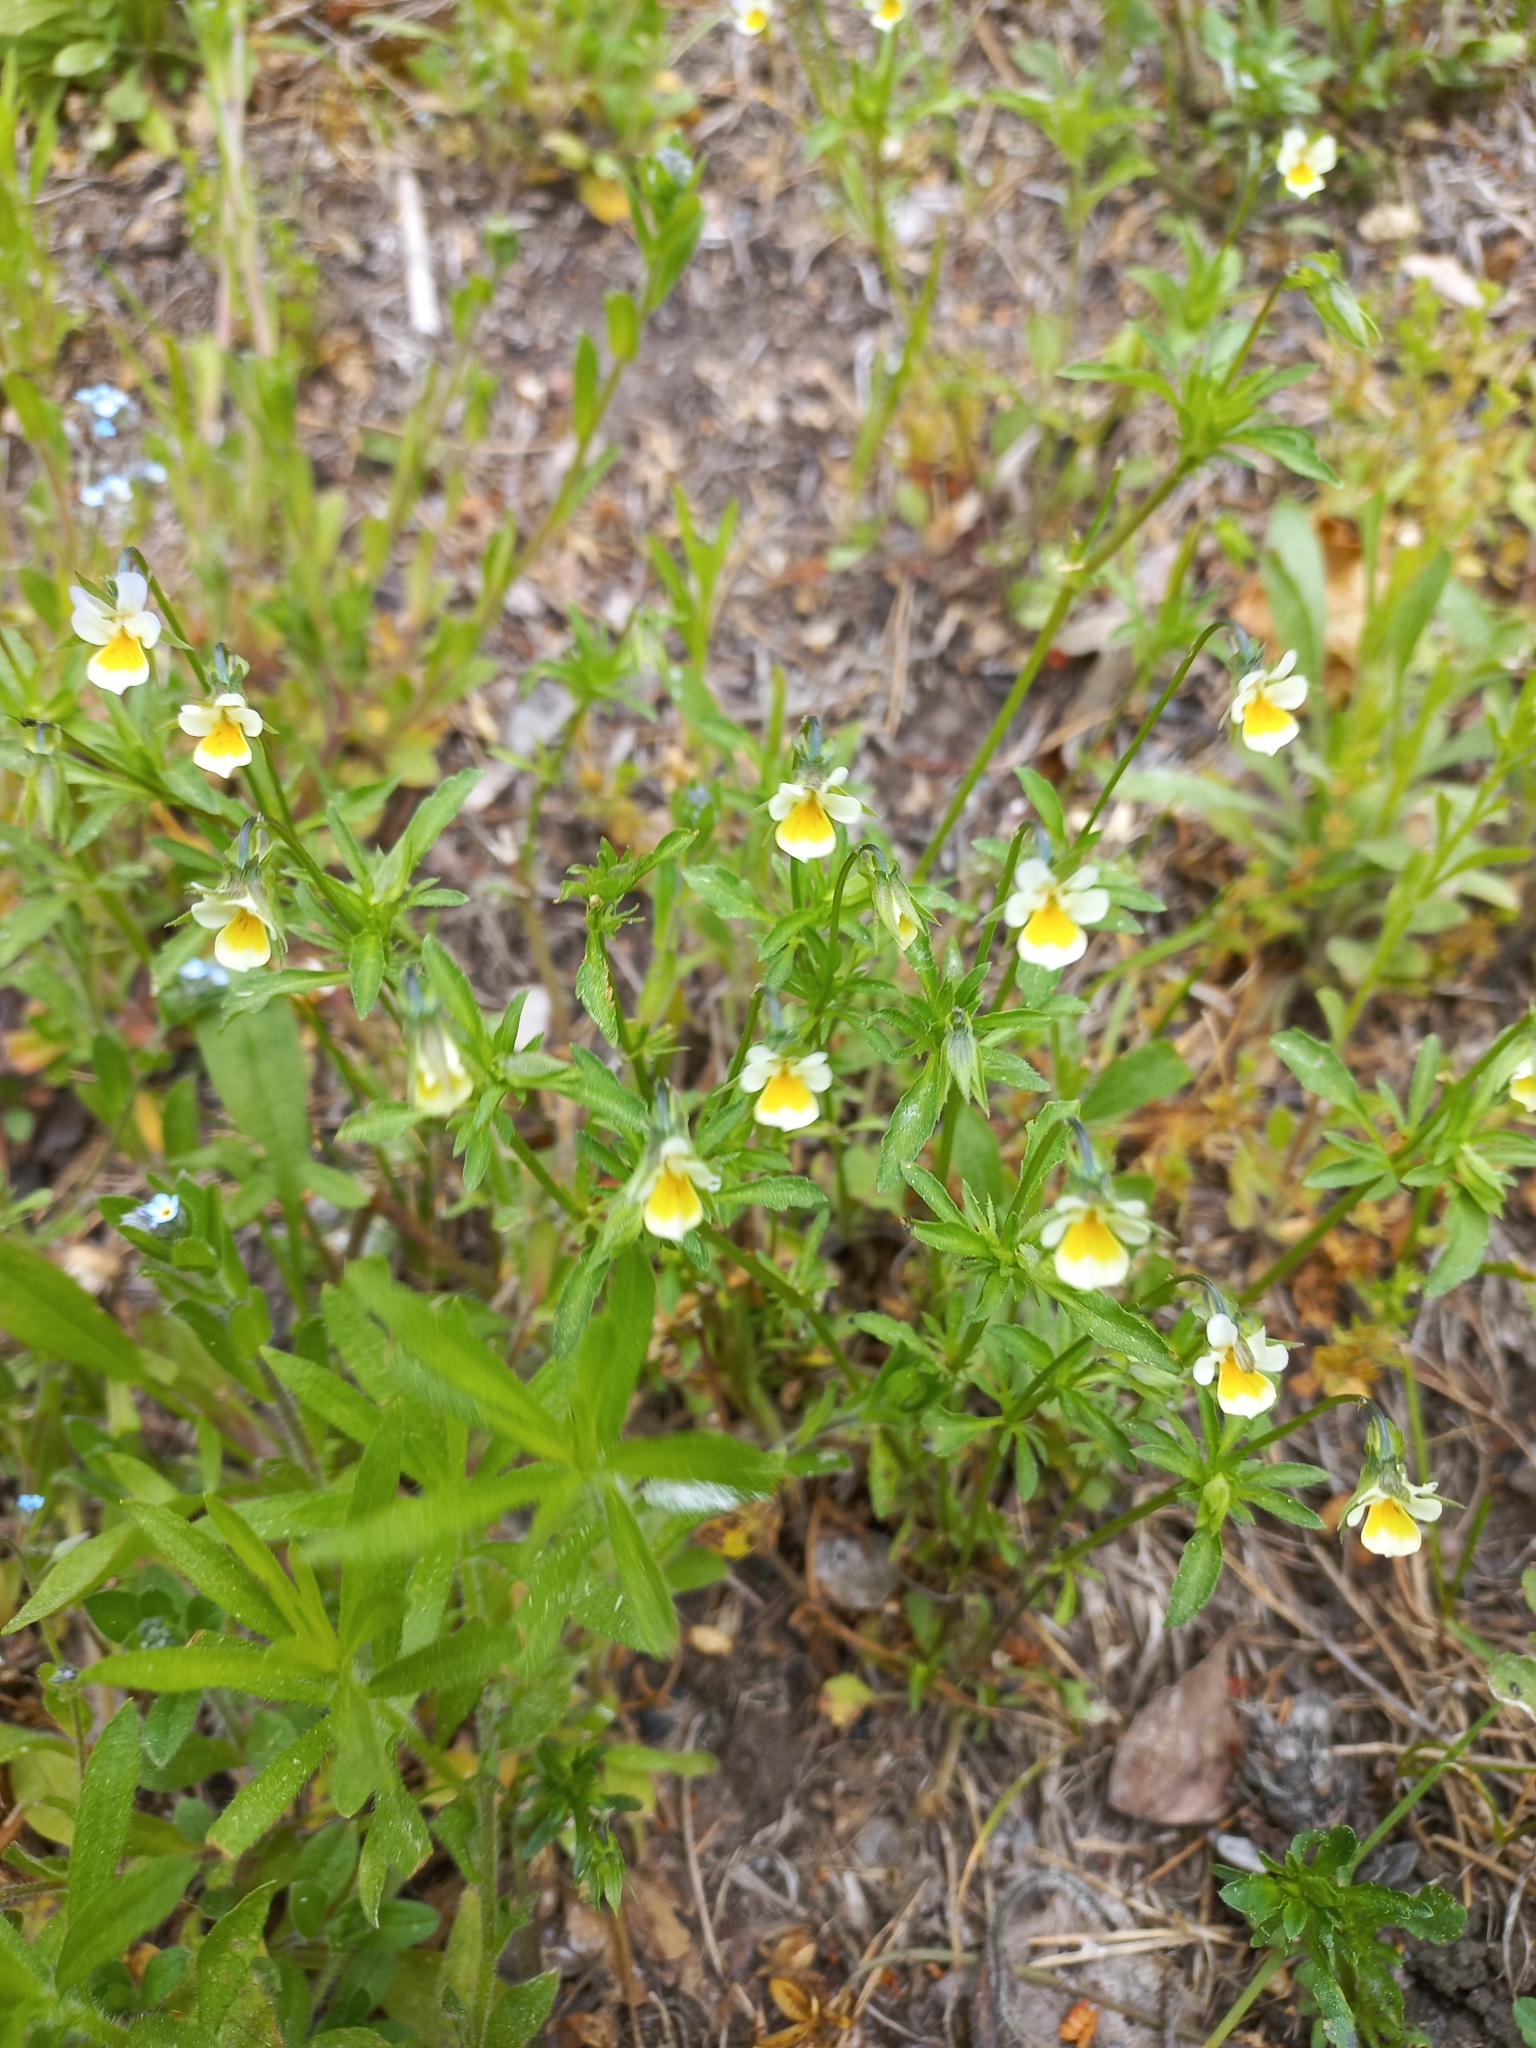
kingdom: Plantae
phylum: Tracheophyta
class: Magnoliopsida
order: Malpighiales
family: Violaceae
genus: Viola
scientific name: Viola arvensis
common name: Field pansy
